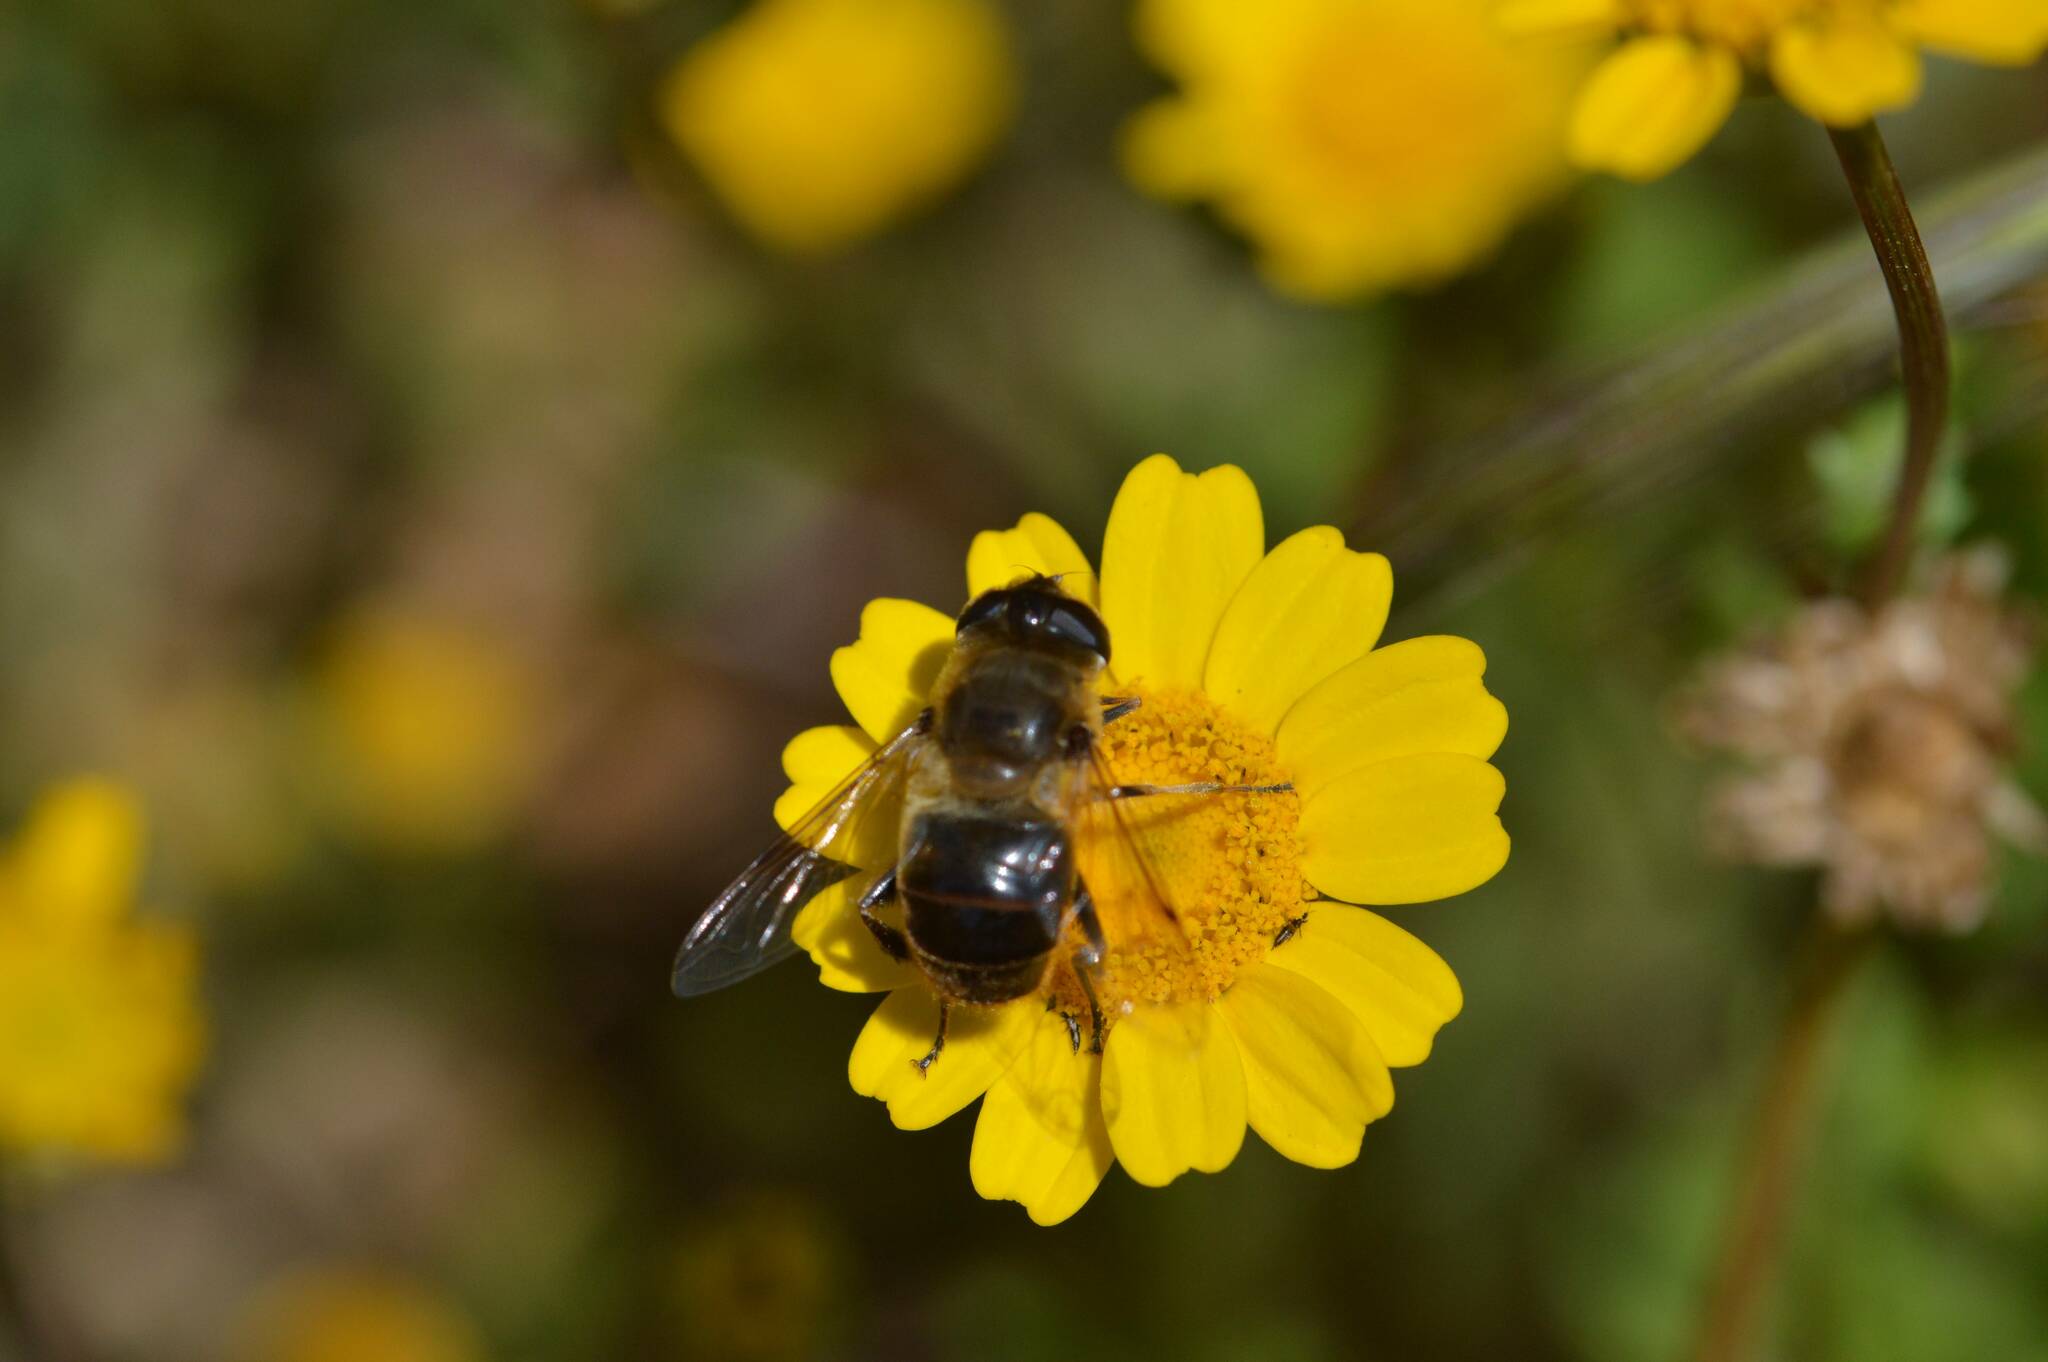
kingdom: Animalia
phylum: Arthropoda
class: Insecta
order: Diptera
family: Syrphidae
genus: Eristalis
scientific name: Eristalis tenax
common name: Drone fly
